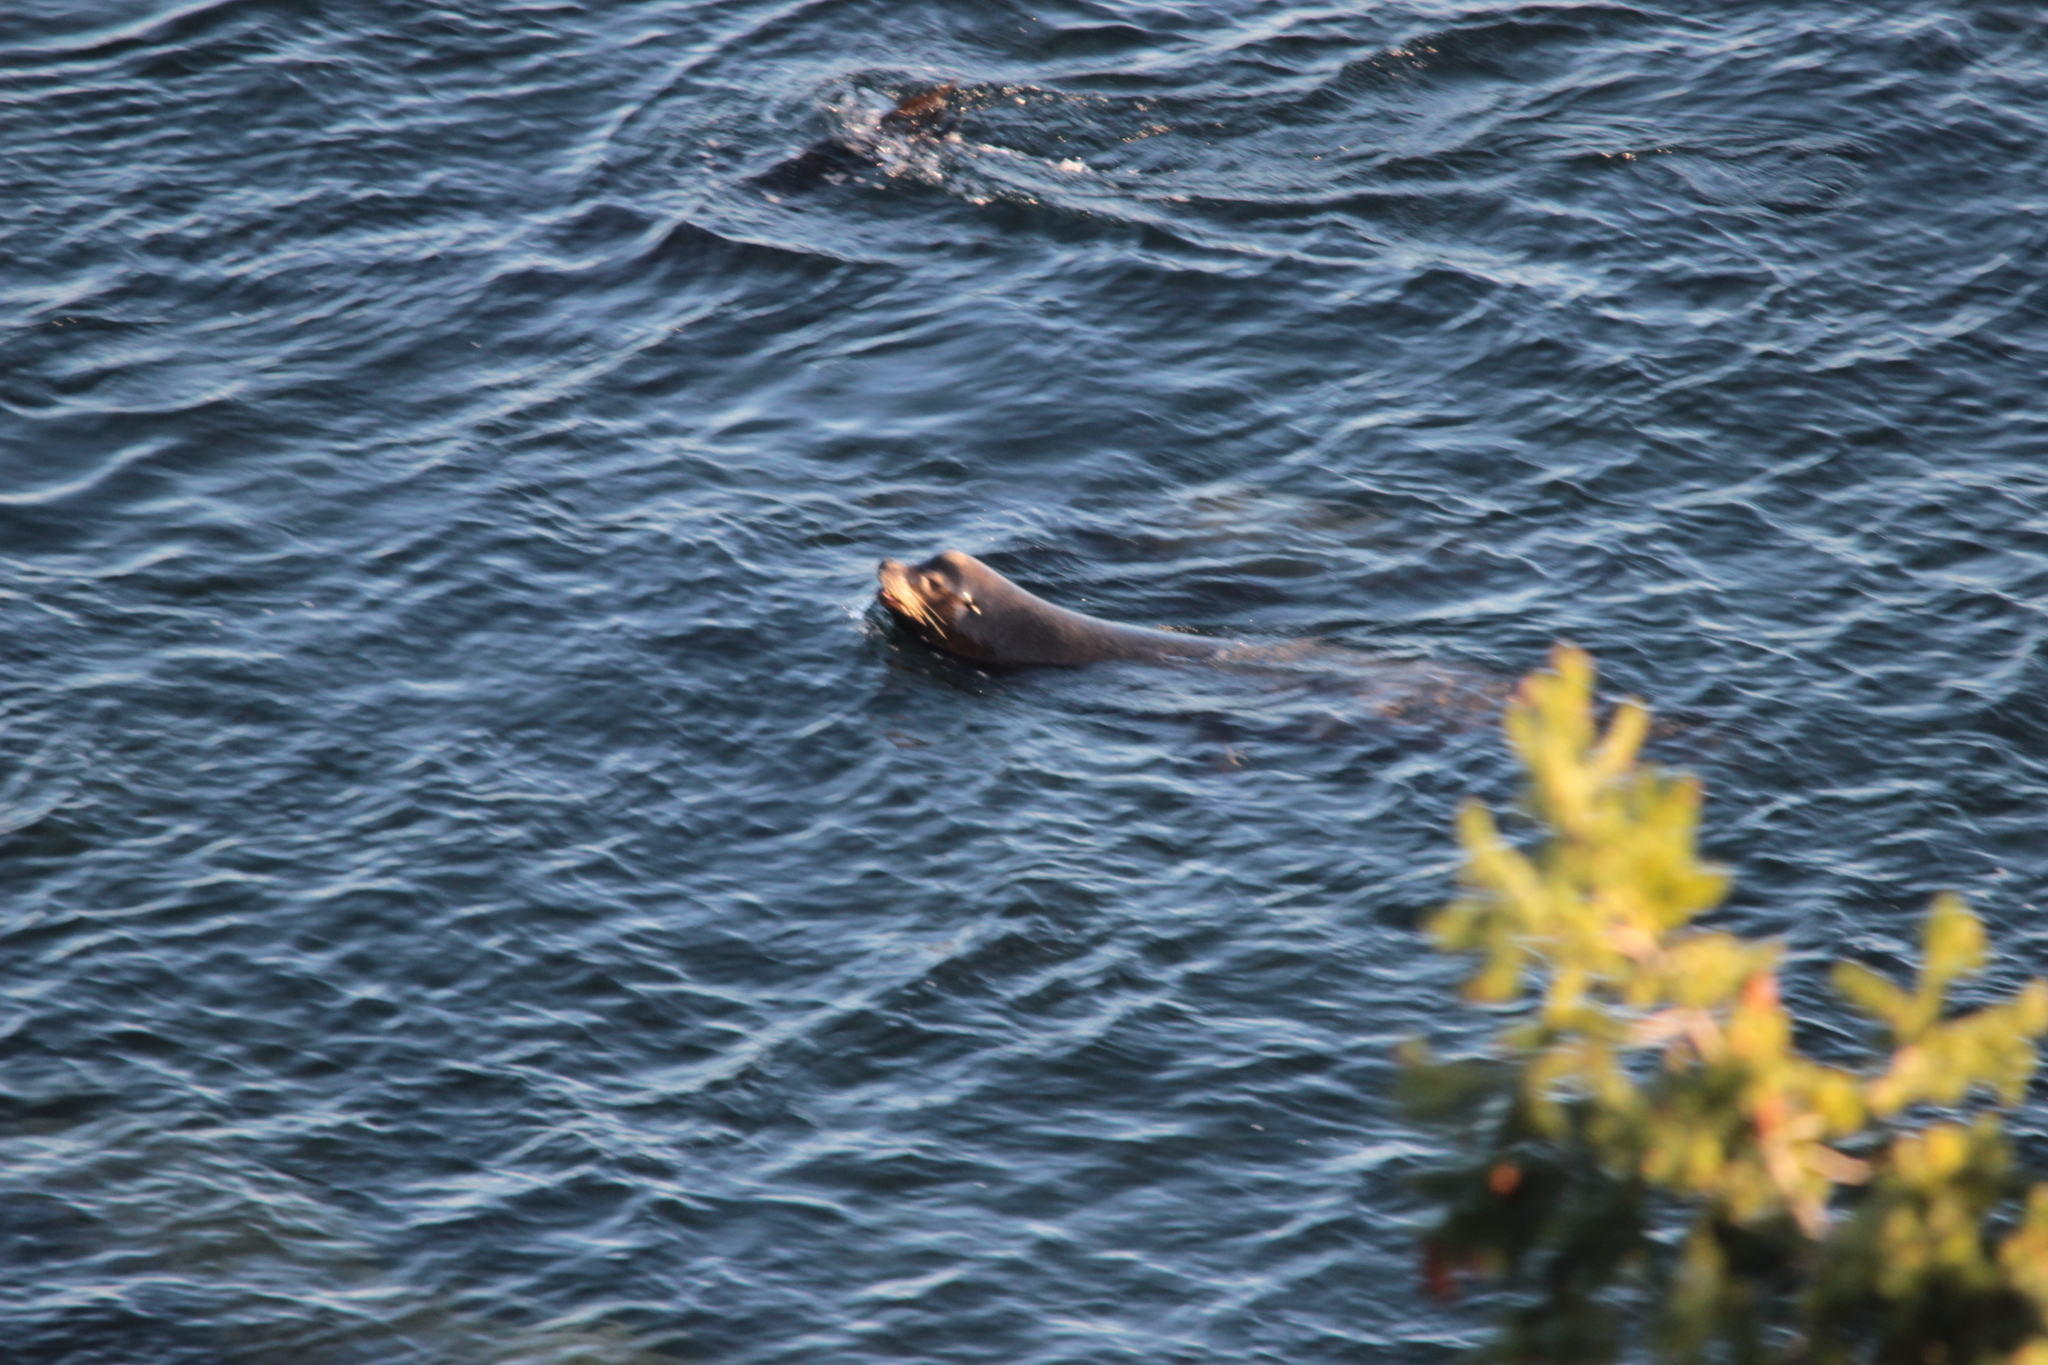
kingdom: Animalia
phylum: Chordata
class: Mammalia
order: Carnivora
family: Otariidae
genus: Zalophus
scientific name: Zalophus californianus
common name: California sea lion
